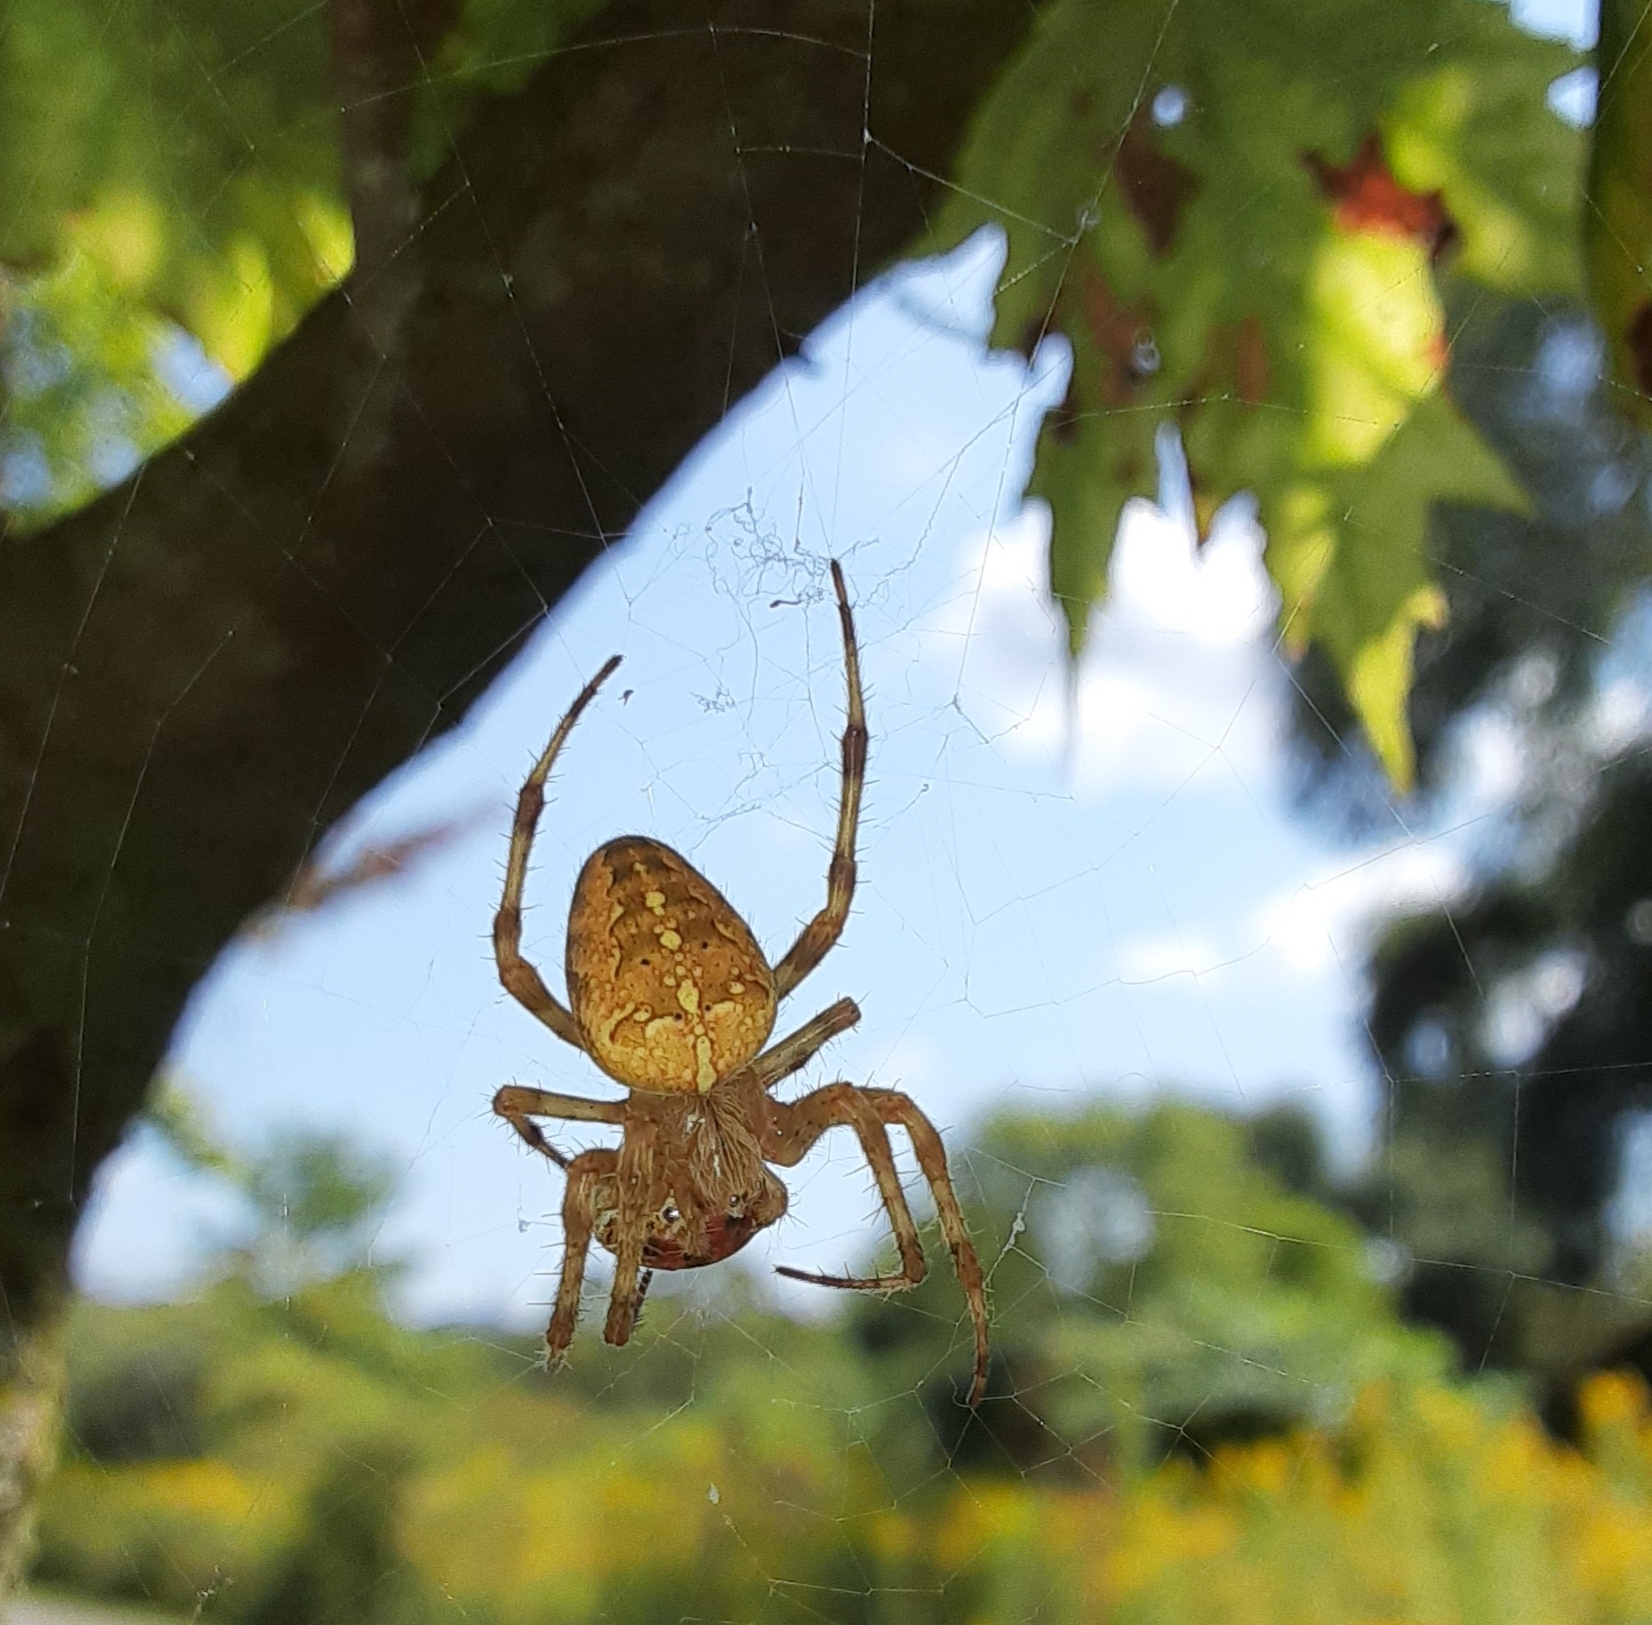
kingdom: Animalia
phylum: Arthropoda
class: Arachnida
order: Araneae
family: Araneidae
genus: Araneus
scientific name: Araneus diadematus
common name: Cross orbweaver
